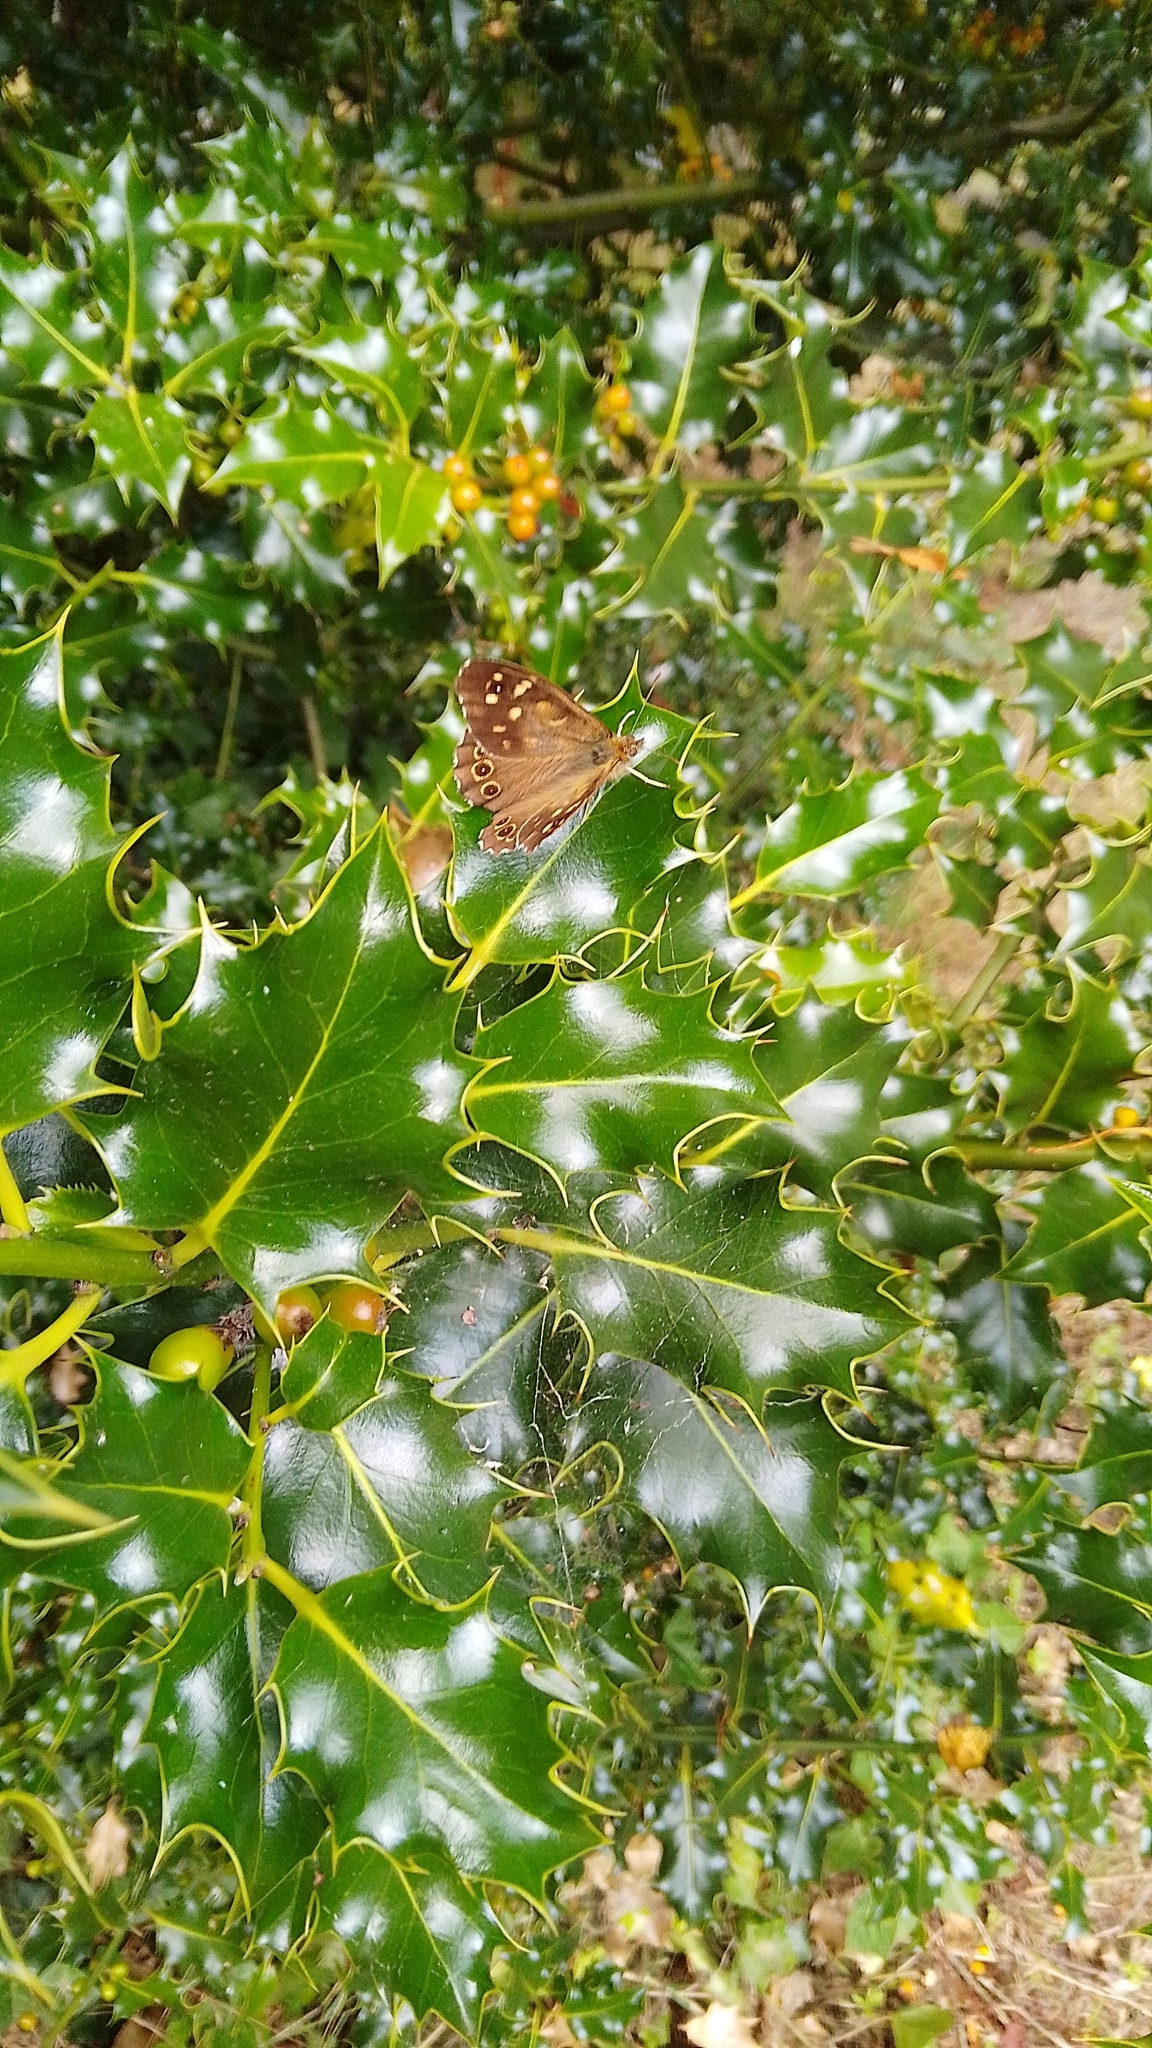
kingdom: Animalia
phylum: Arthropoda
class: Insecta
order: Lepidoptera
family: Nymphalidae
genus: Pararge
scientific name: Pararge aegeria
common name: Speckled wood
